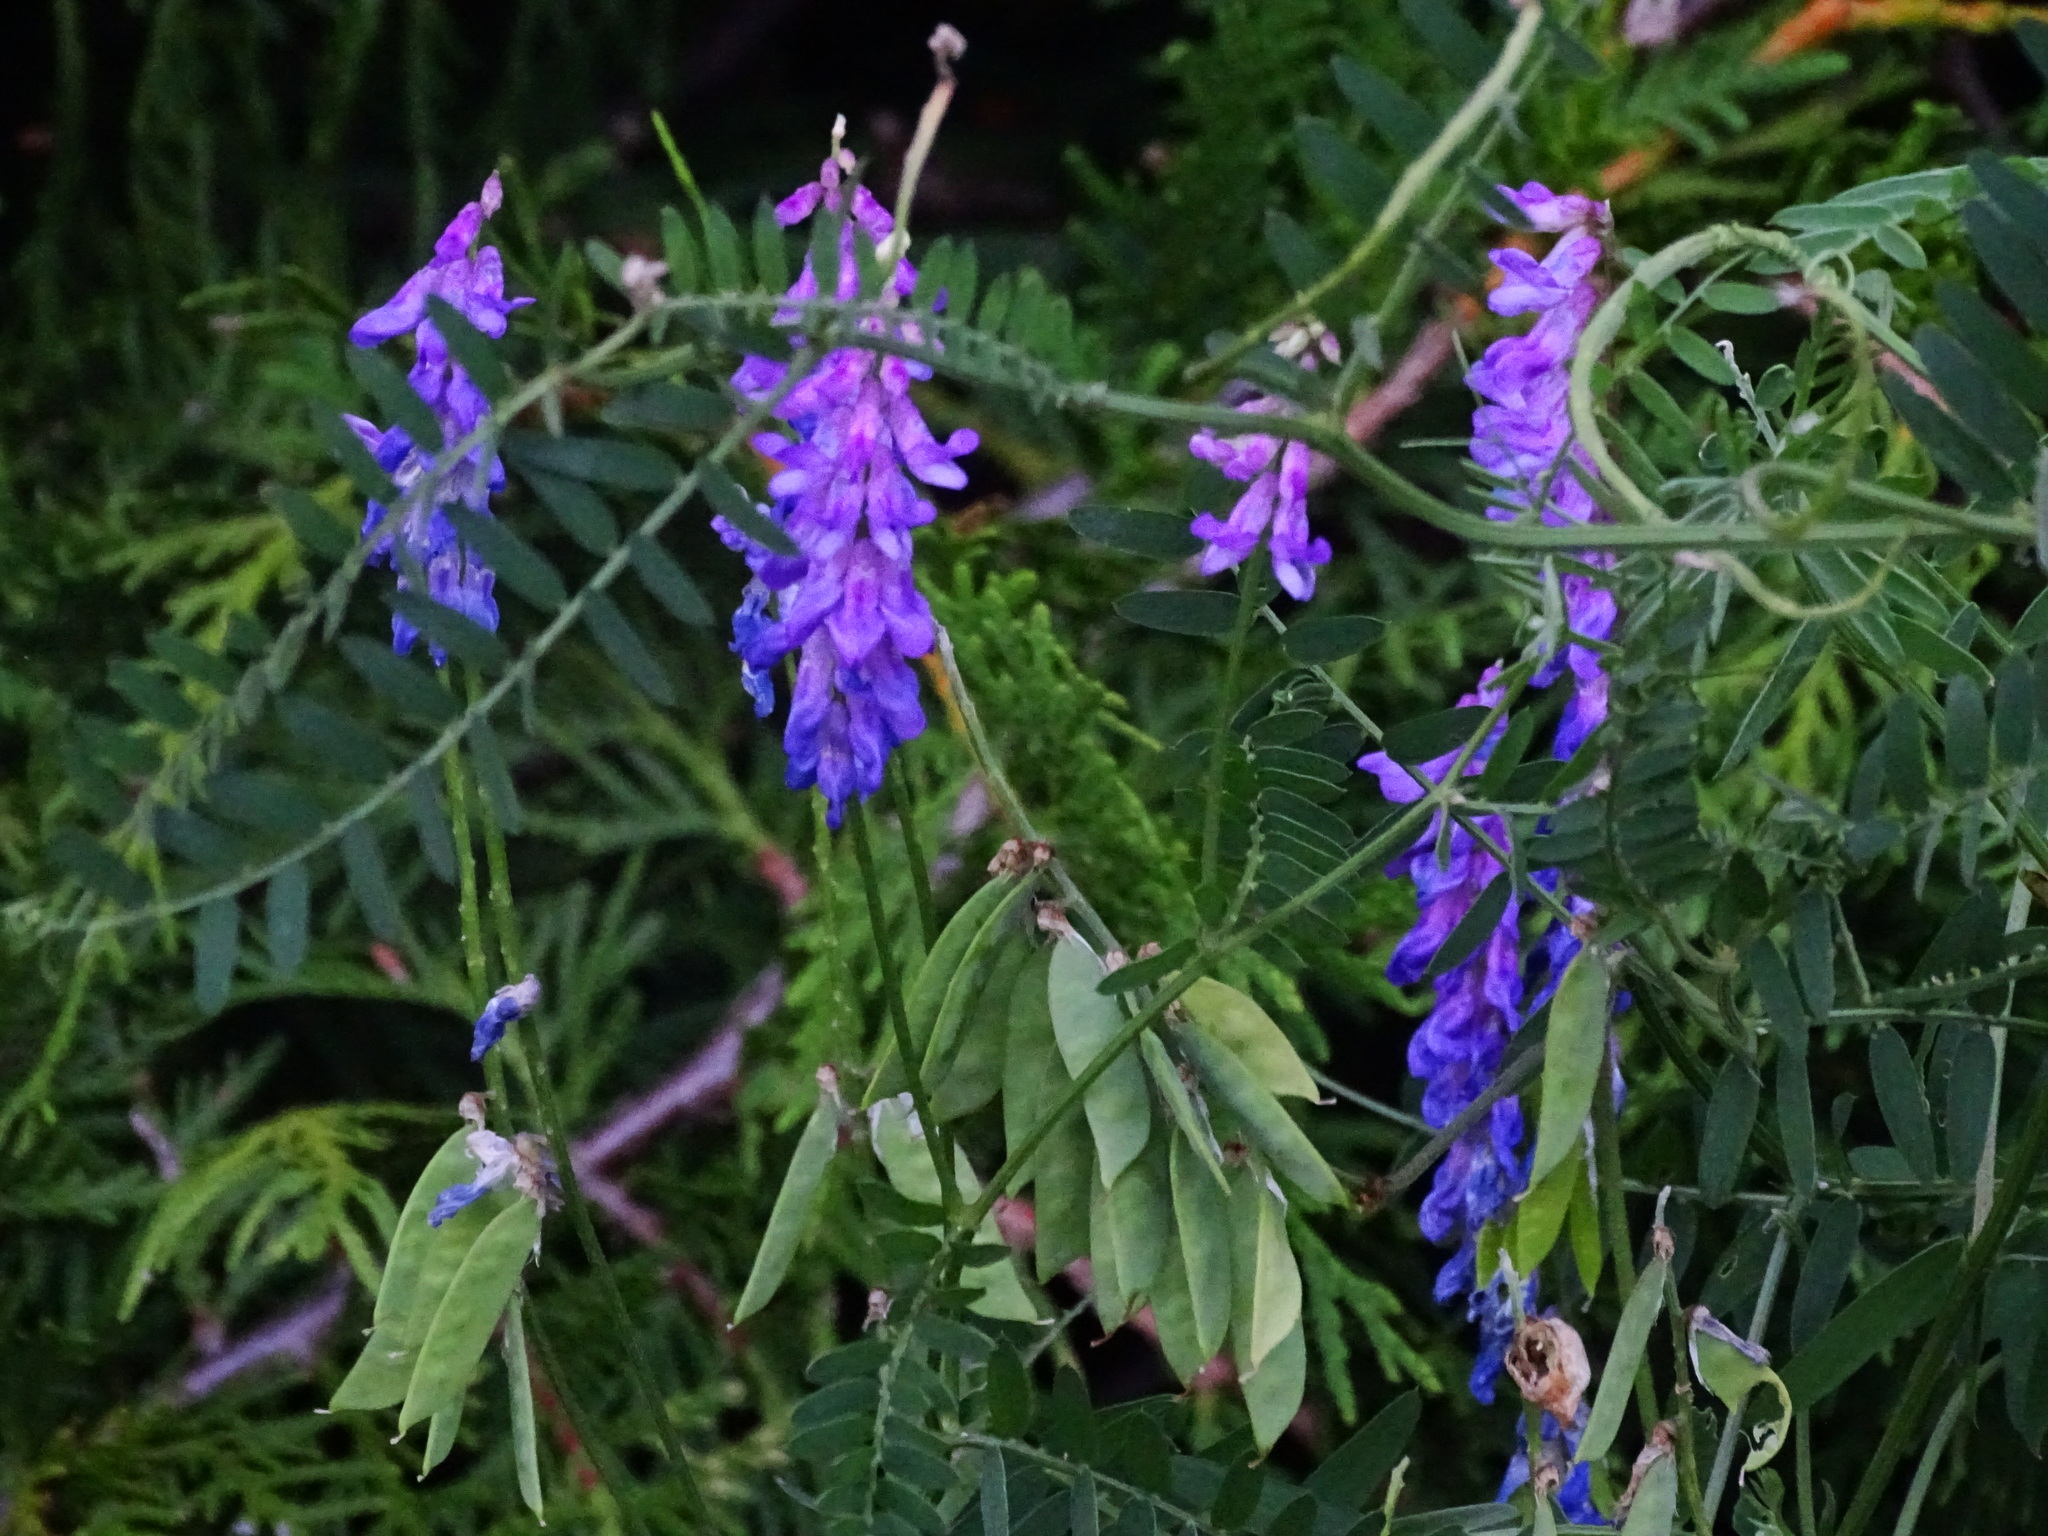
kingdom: Plantae
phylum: Tracheophyta
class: Magnoliopsida
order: Fabales
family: Fabaceae
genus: Vicia
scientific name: Vicia cracca
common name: Bird vetch
